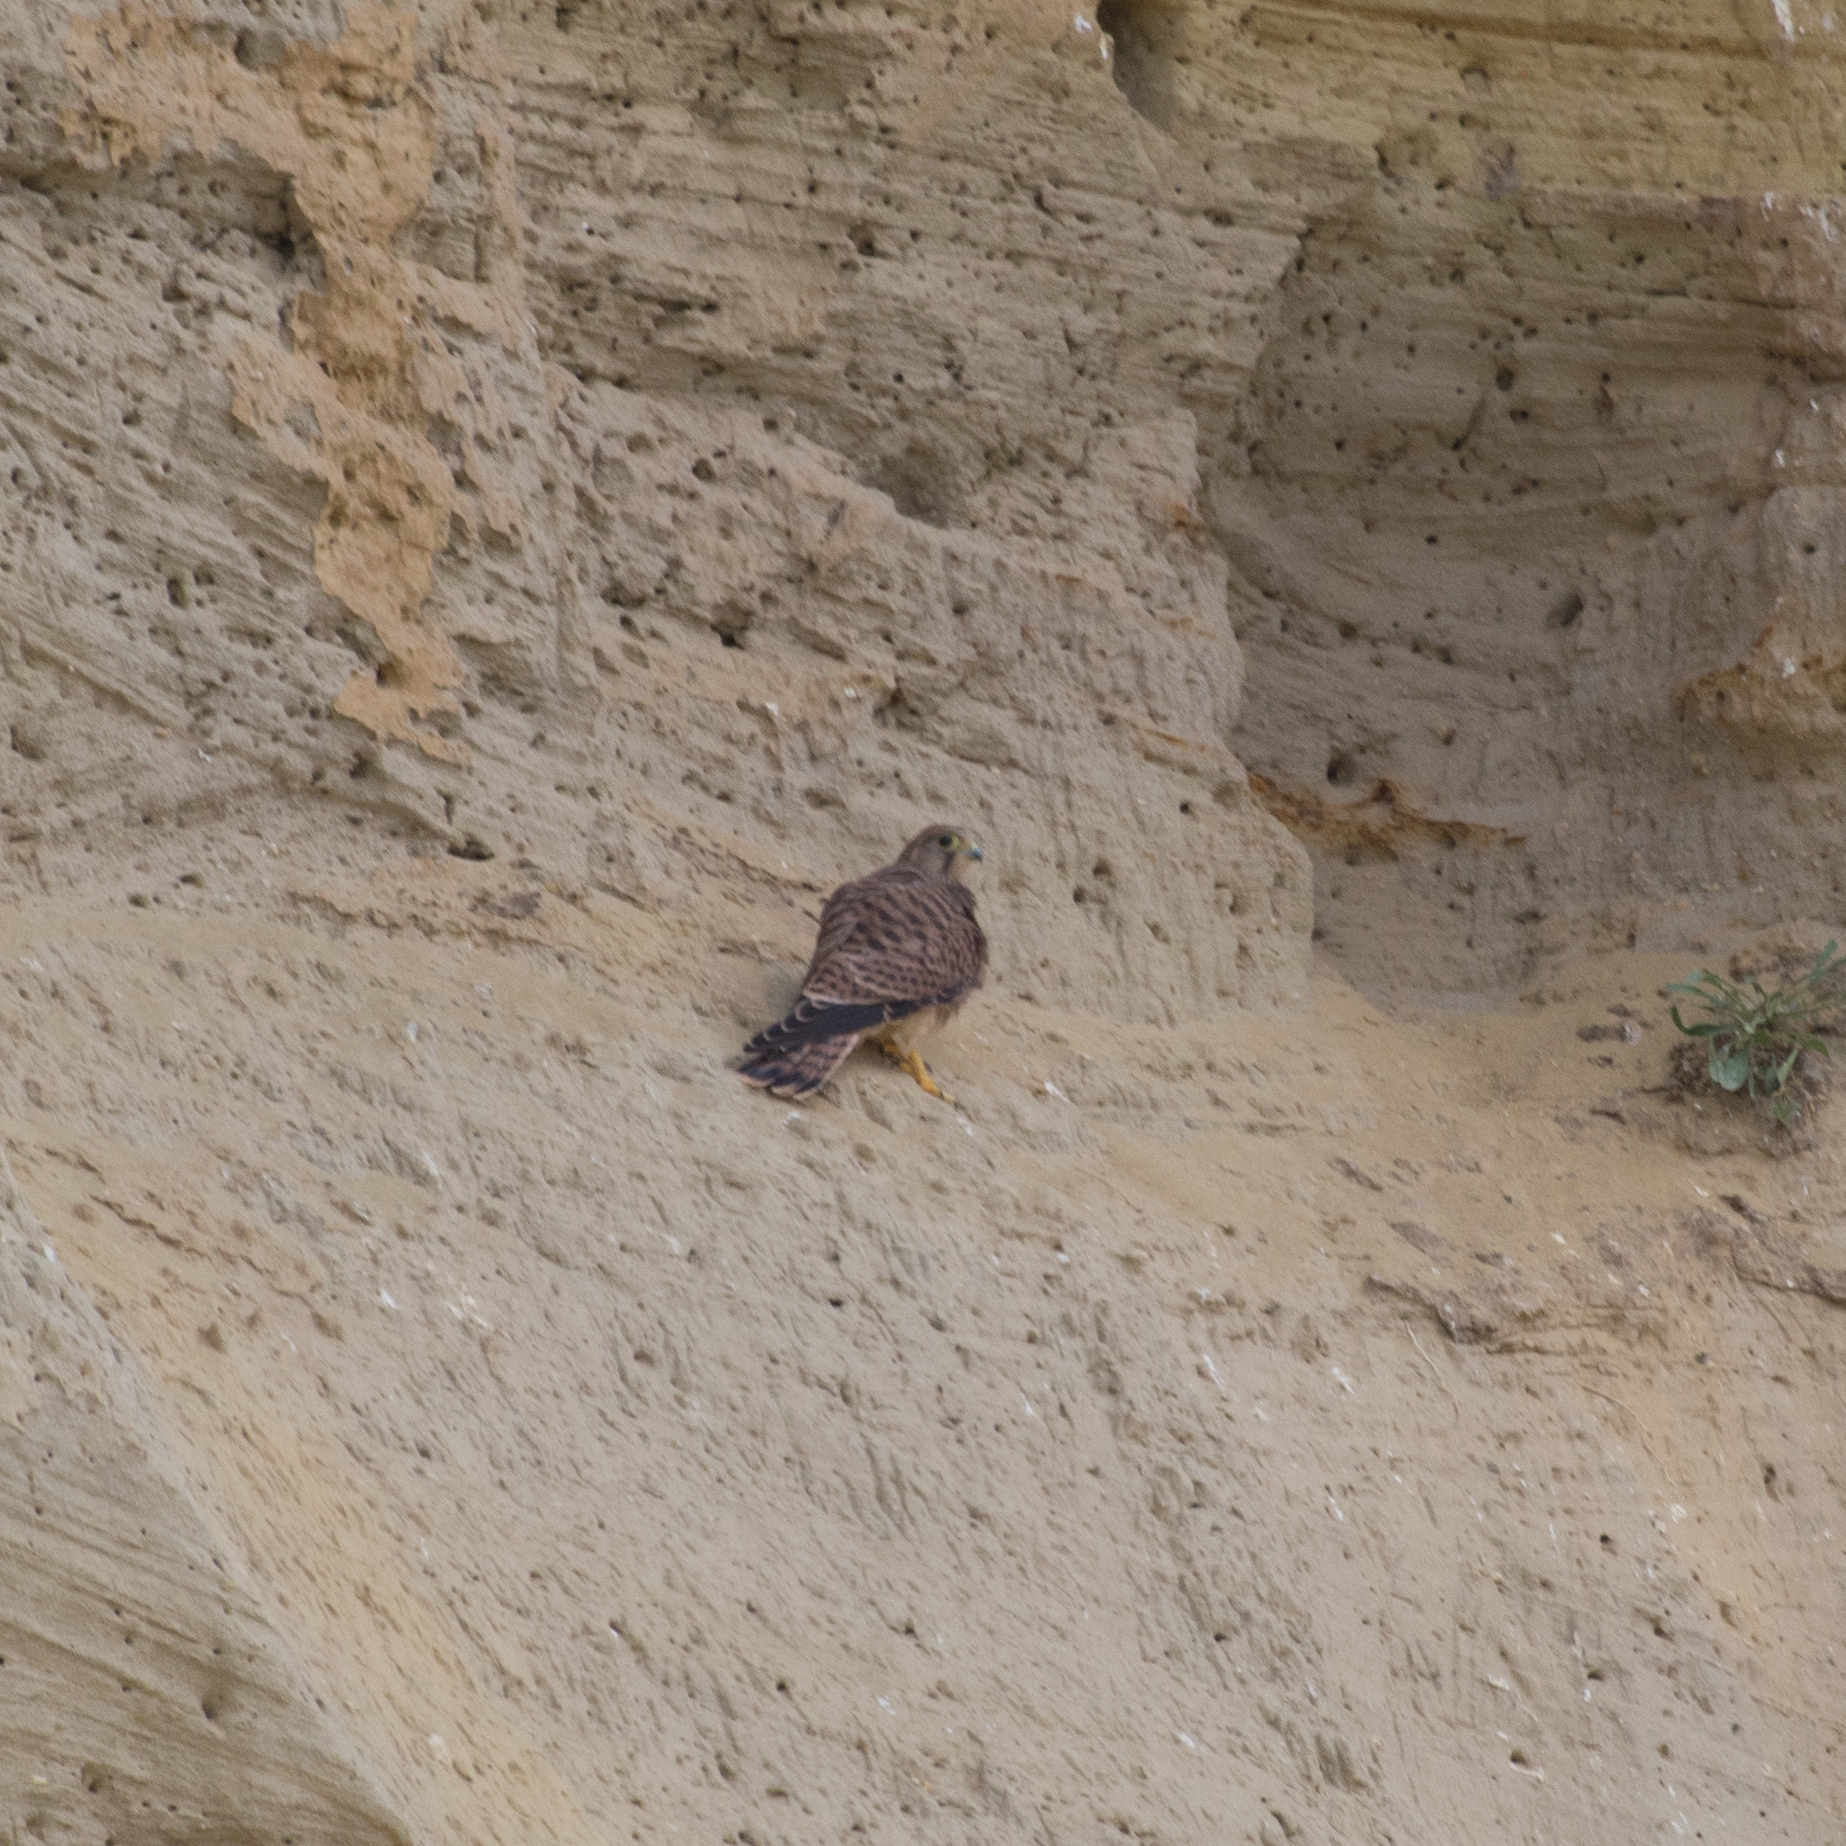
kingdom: Animalia
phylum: Chordata
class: Aves
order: Falconiformes
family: Falconidae
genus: Falco
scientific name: Falco tinnunculus
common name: Common kestrel
